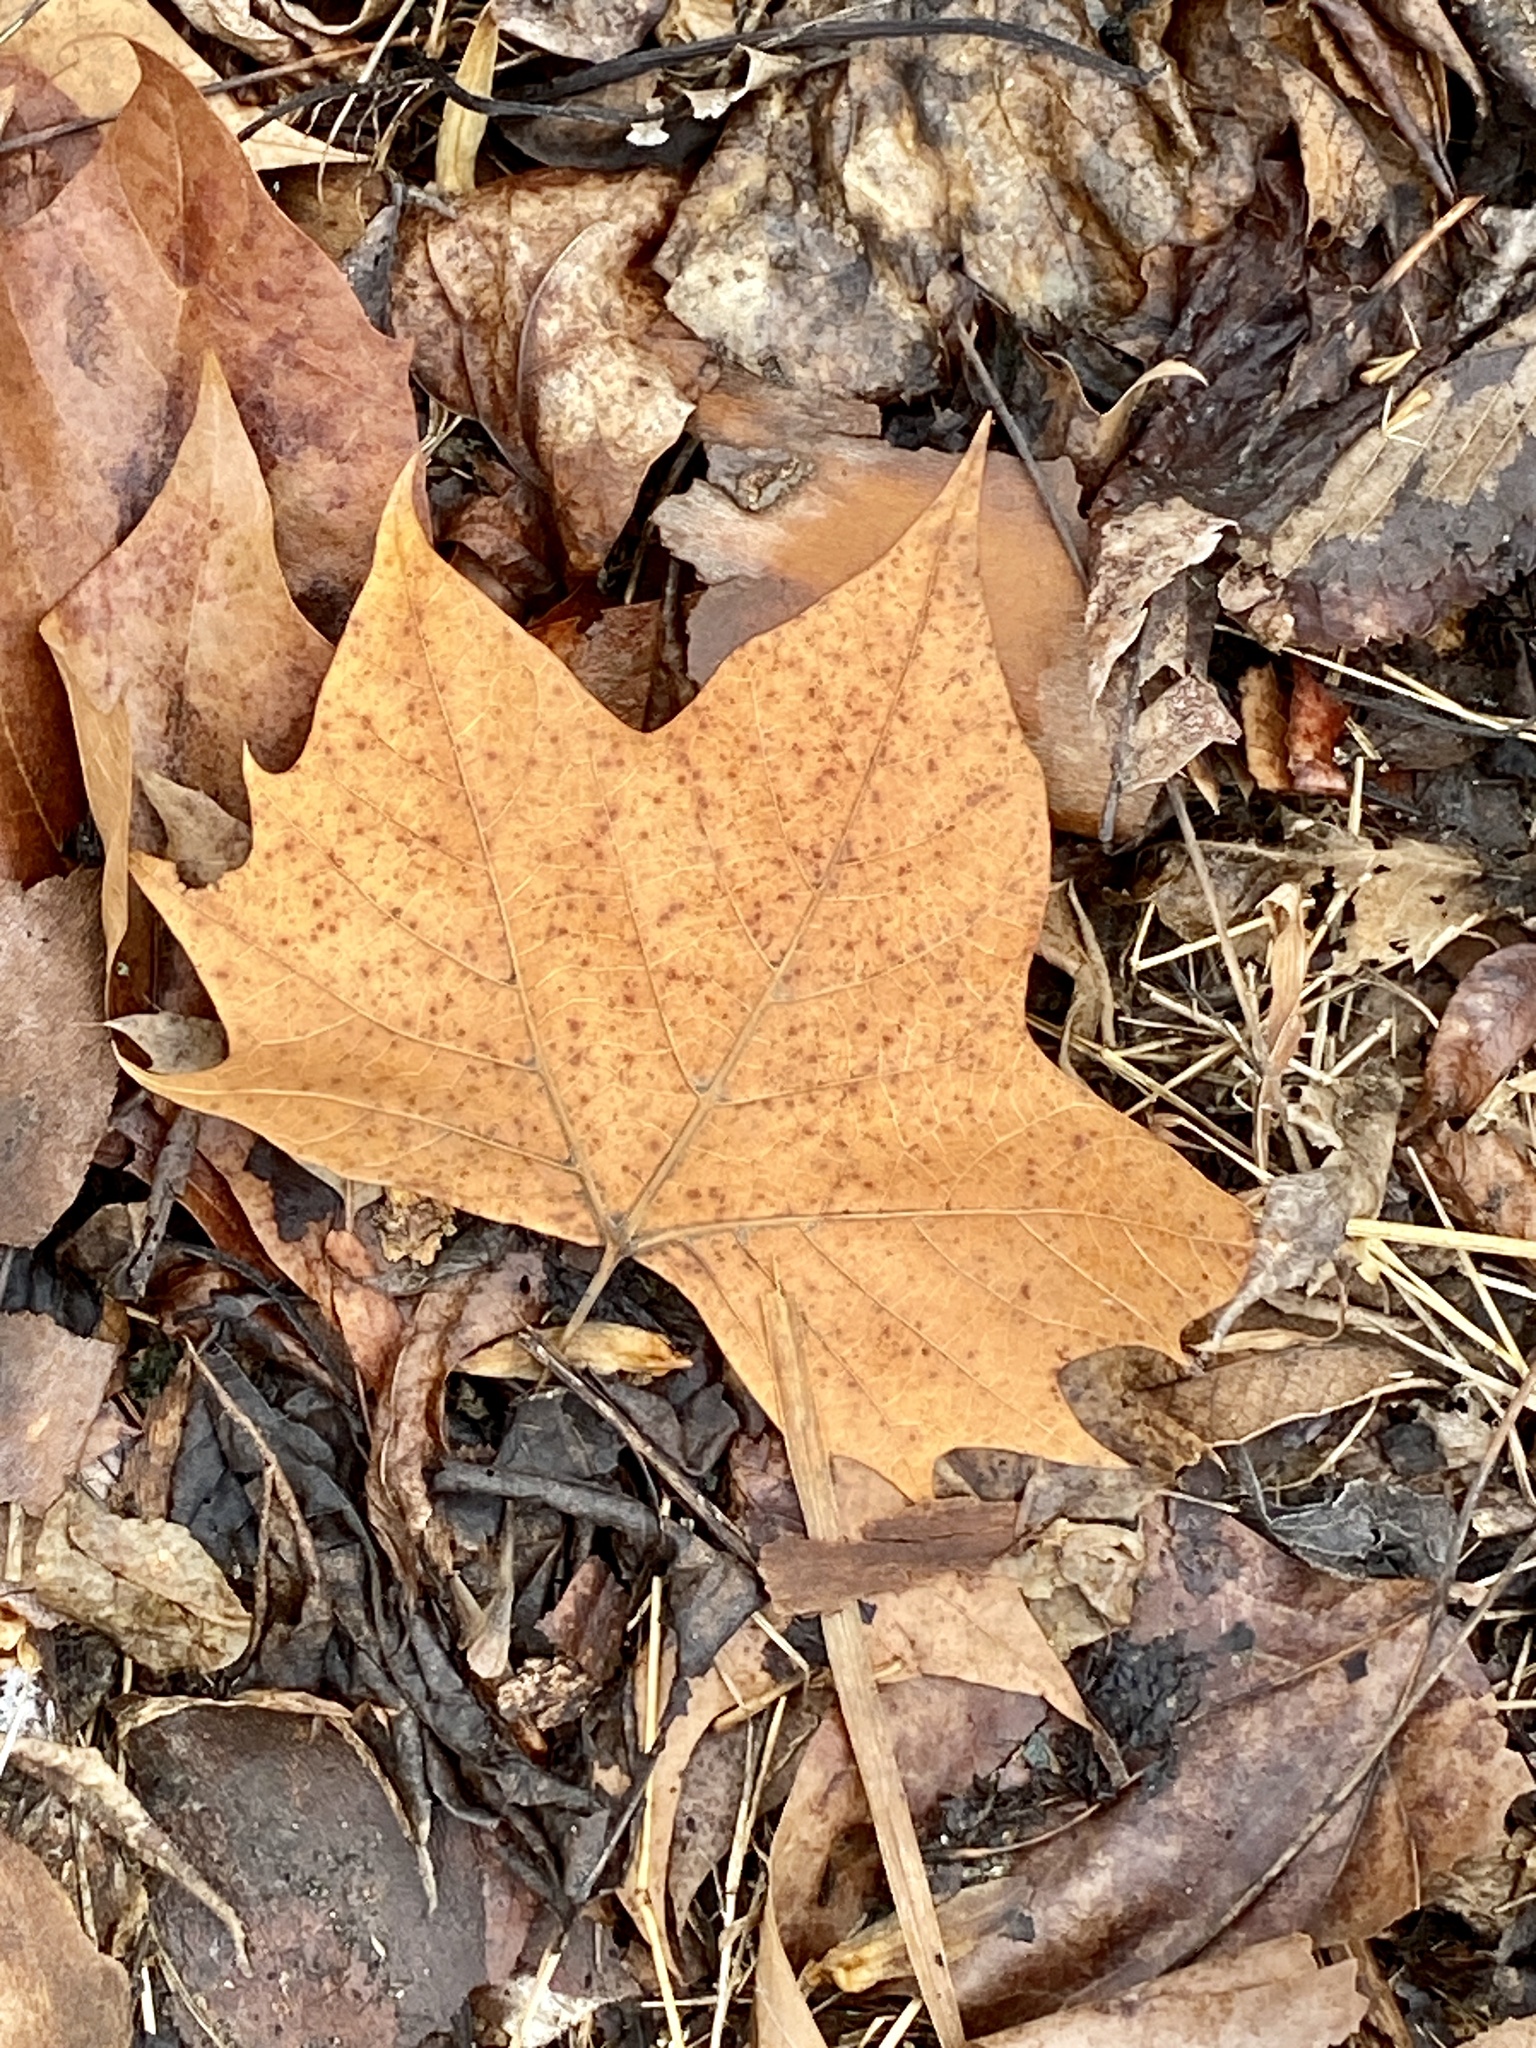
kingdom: Plantae
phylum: Tracheophyta
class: Magnoliopsida
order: Proteales
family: Platanaceae
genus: Platanus
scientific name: Platanus occidentalis
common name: American sycamore
